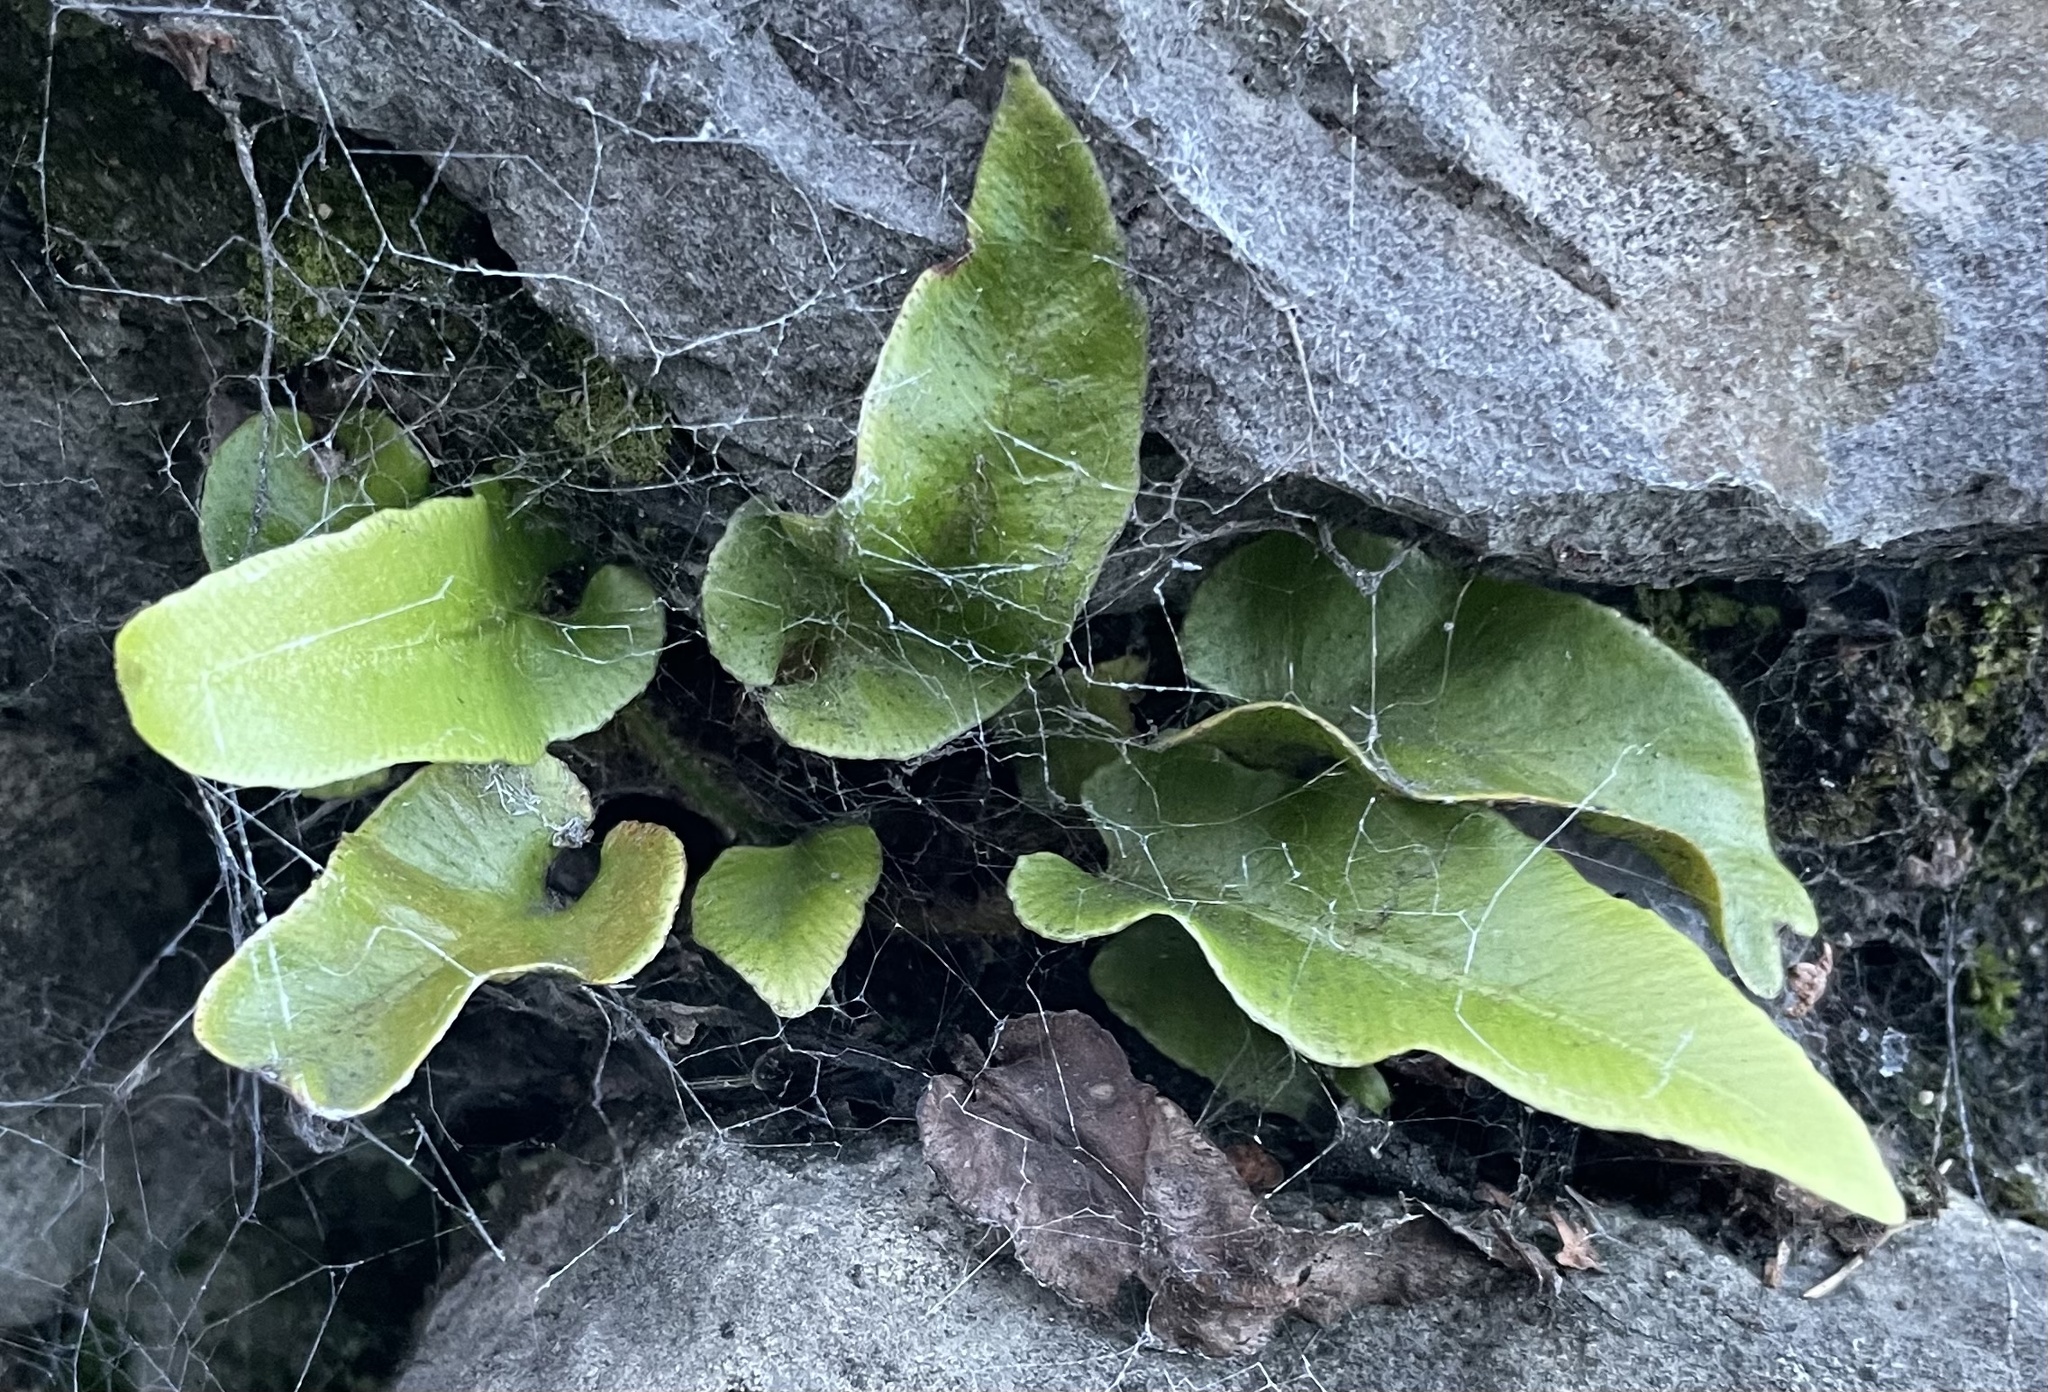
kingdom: Plantae
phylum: Tracheophyta
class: Polypodiopsida
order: Polypodiales
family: Aspleniaceae
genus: Asplenium
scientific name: Asplenium scolopendrium
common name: Hart's-tongue fern
